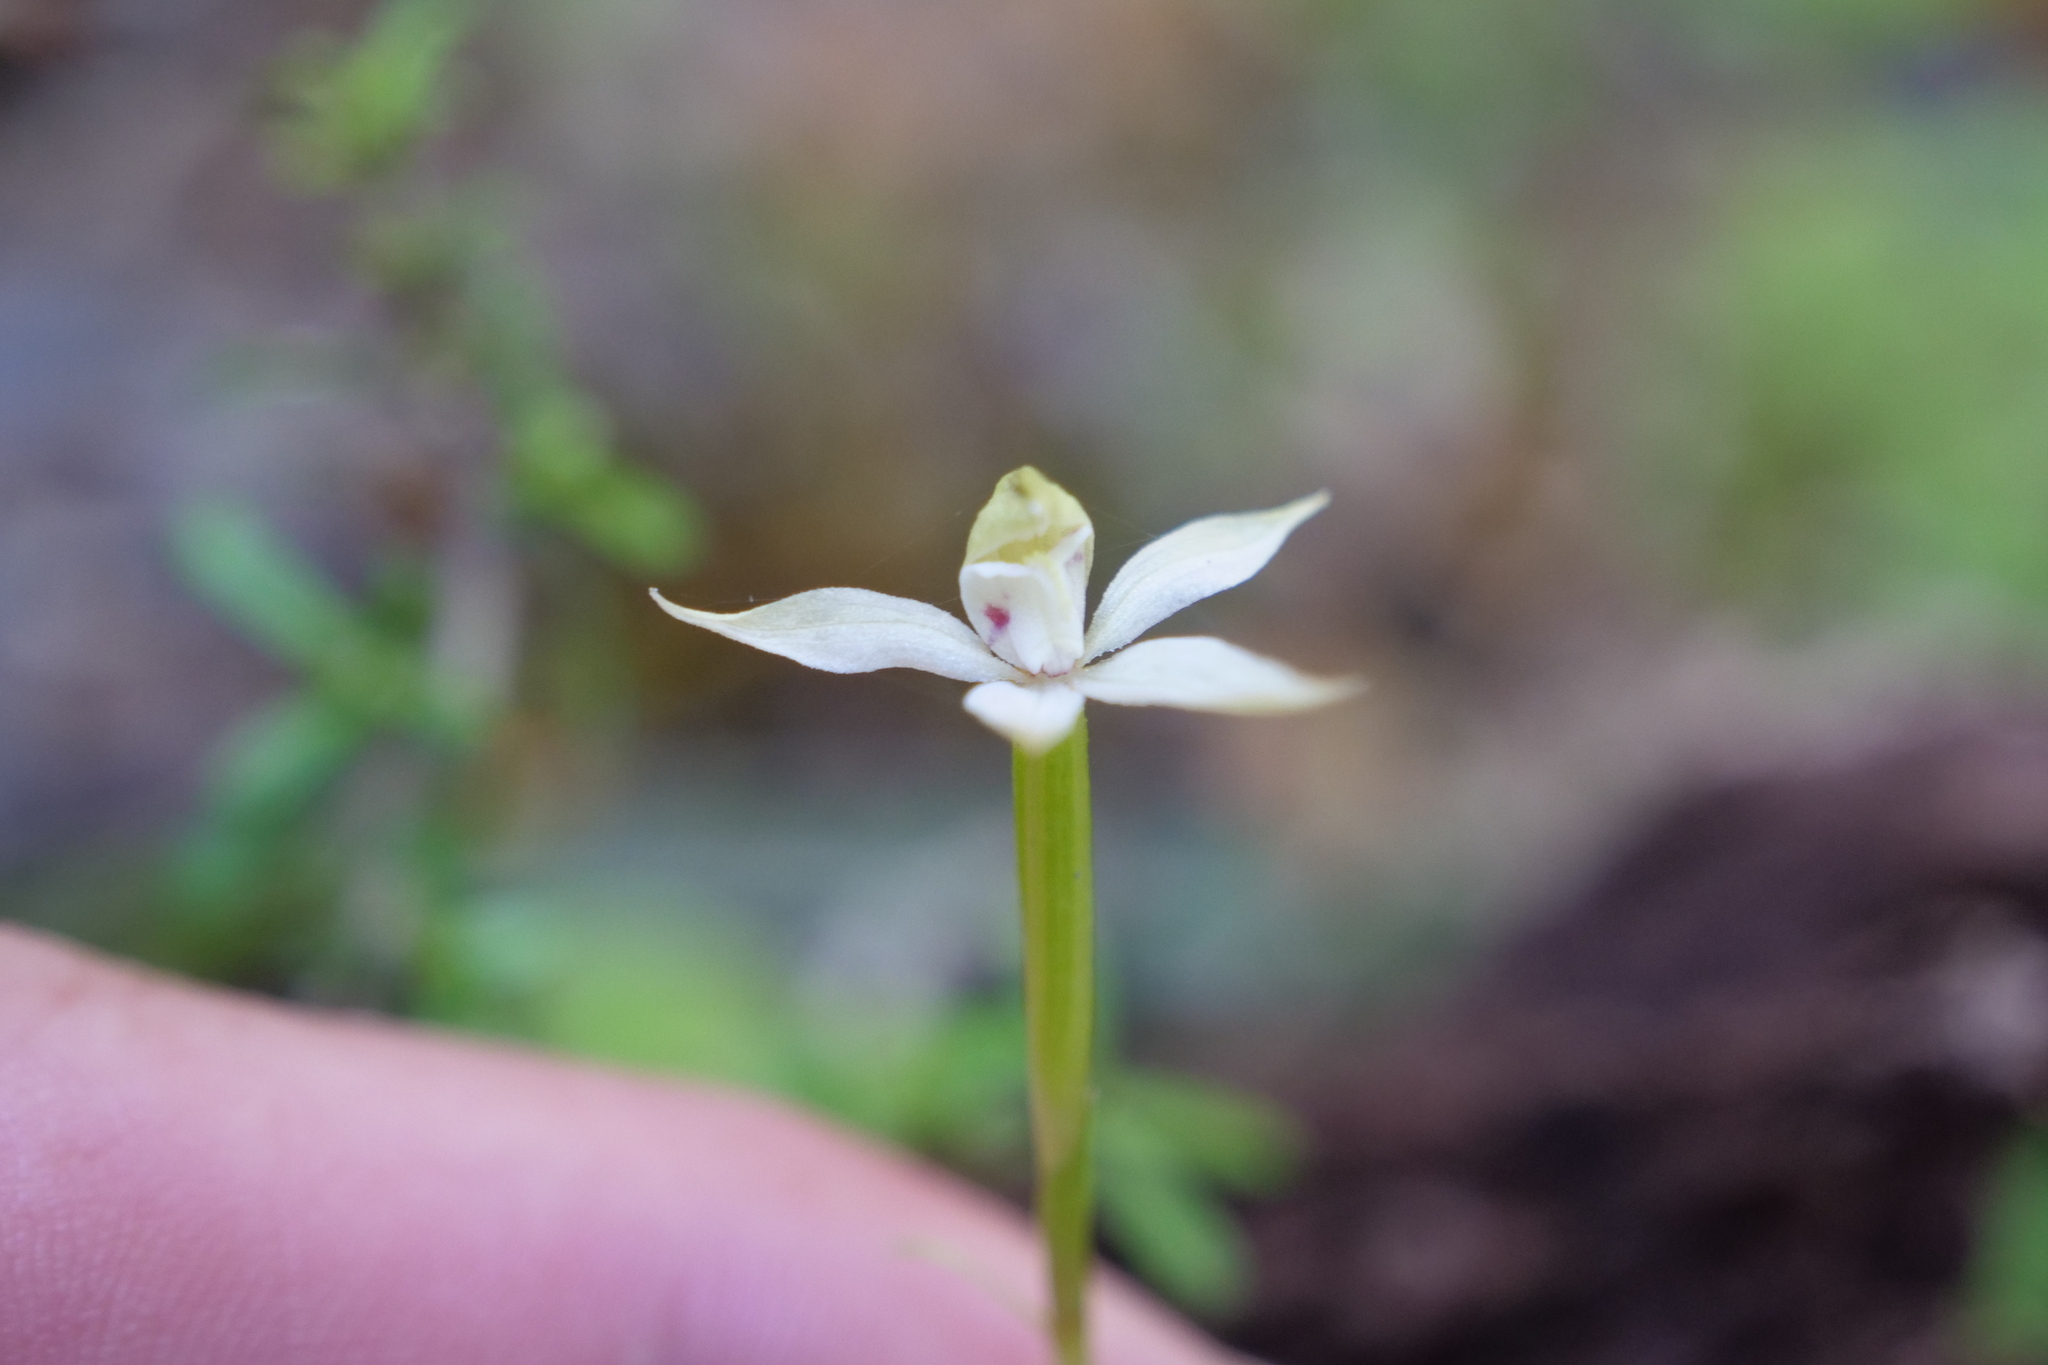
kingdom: Plantae
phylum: Tracheophyta
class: Liliopsida
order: Asparagales
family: Orchidaceae
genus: Adenochilus
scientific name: Adenochilus gracilis
